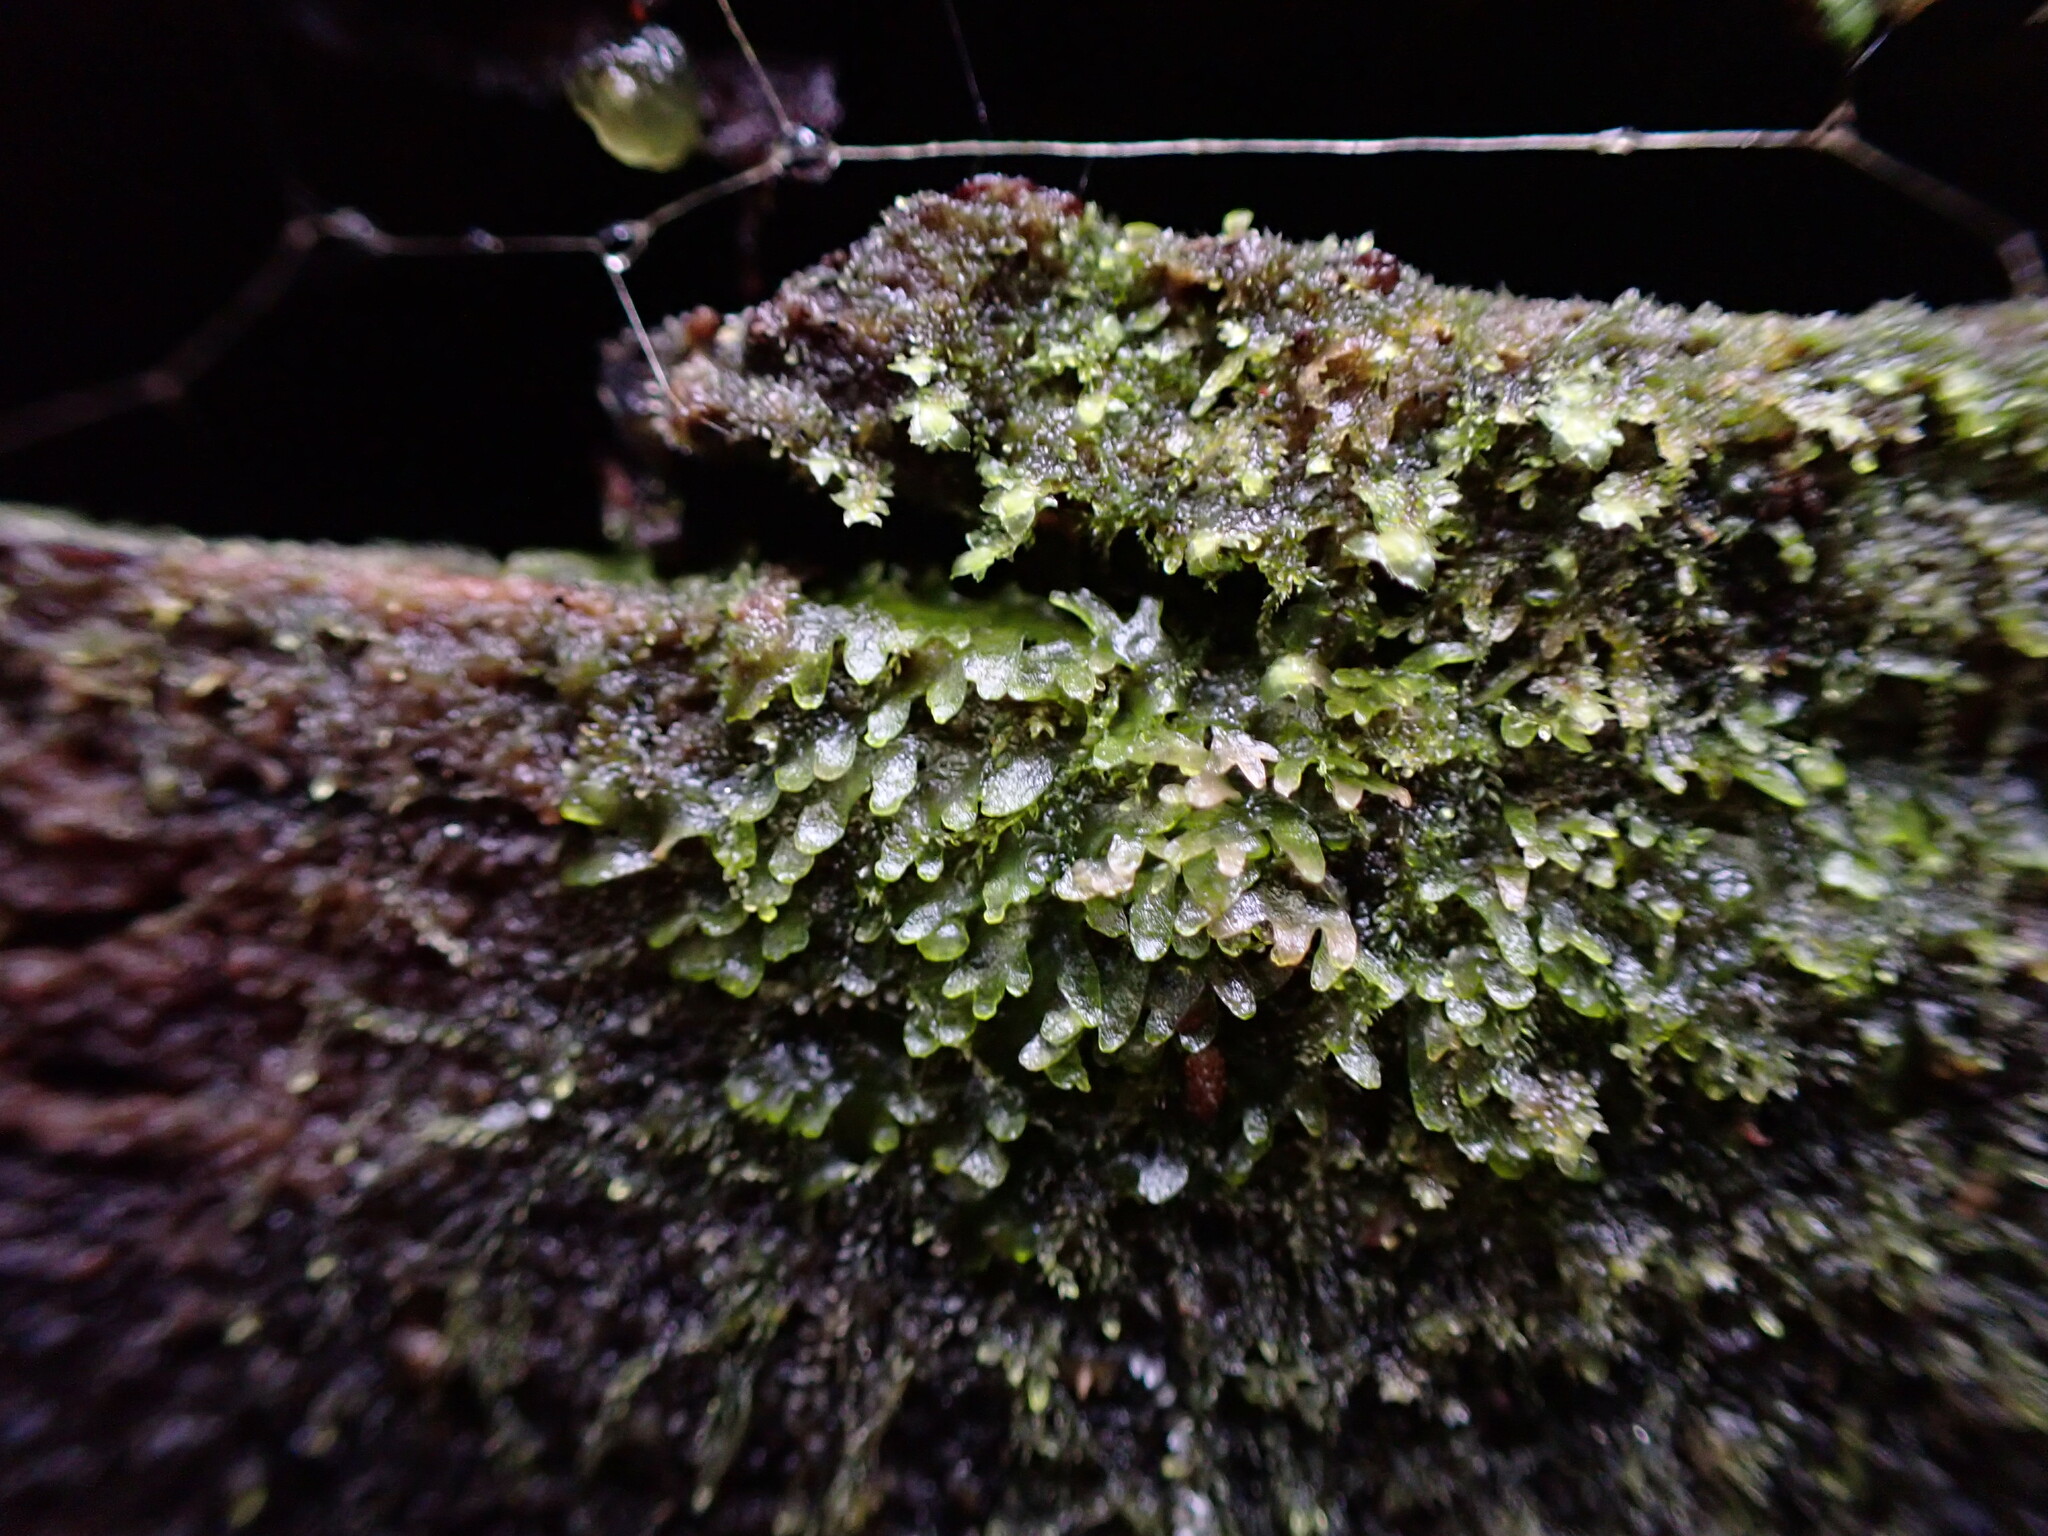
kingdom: Plantae
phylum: Marchantiophyta
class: Jungermanniopsida
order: Metzgeriales
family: Aneuraceae
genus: Riccardia
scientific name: Riccardia latifrons
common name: Bog germanderwort
